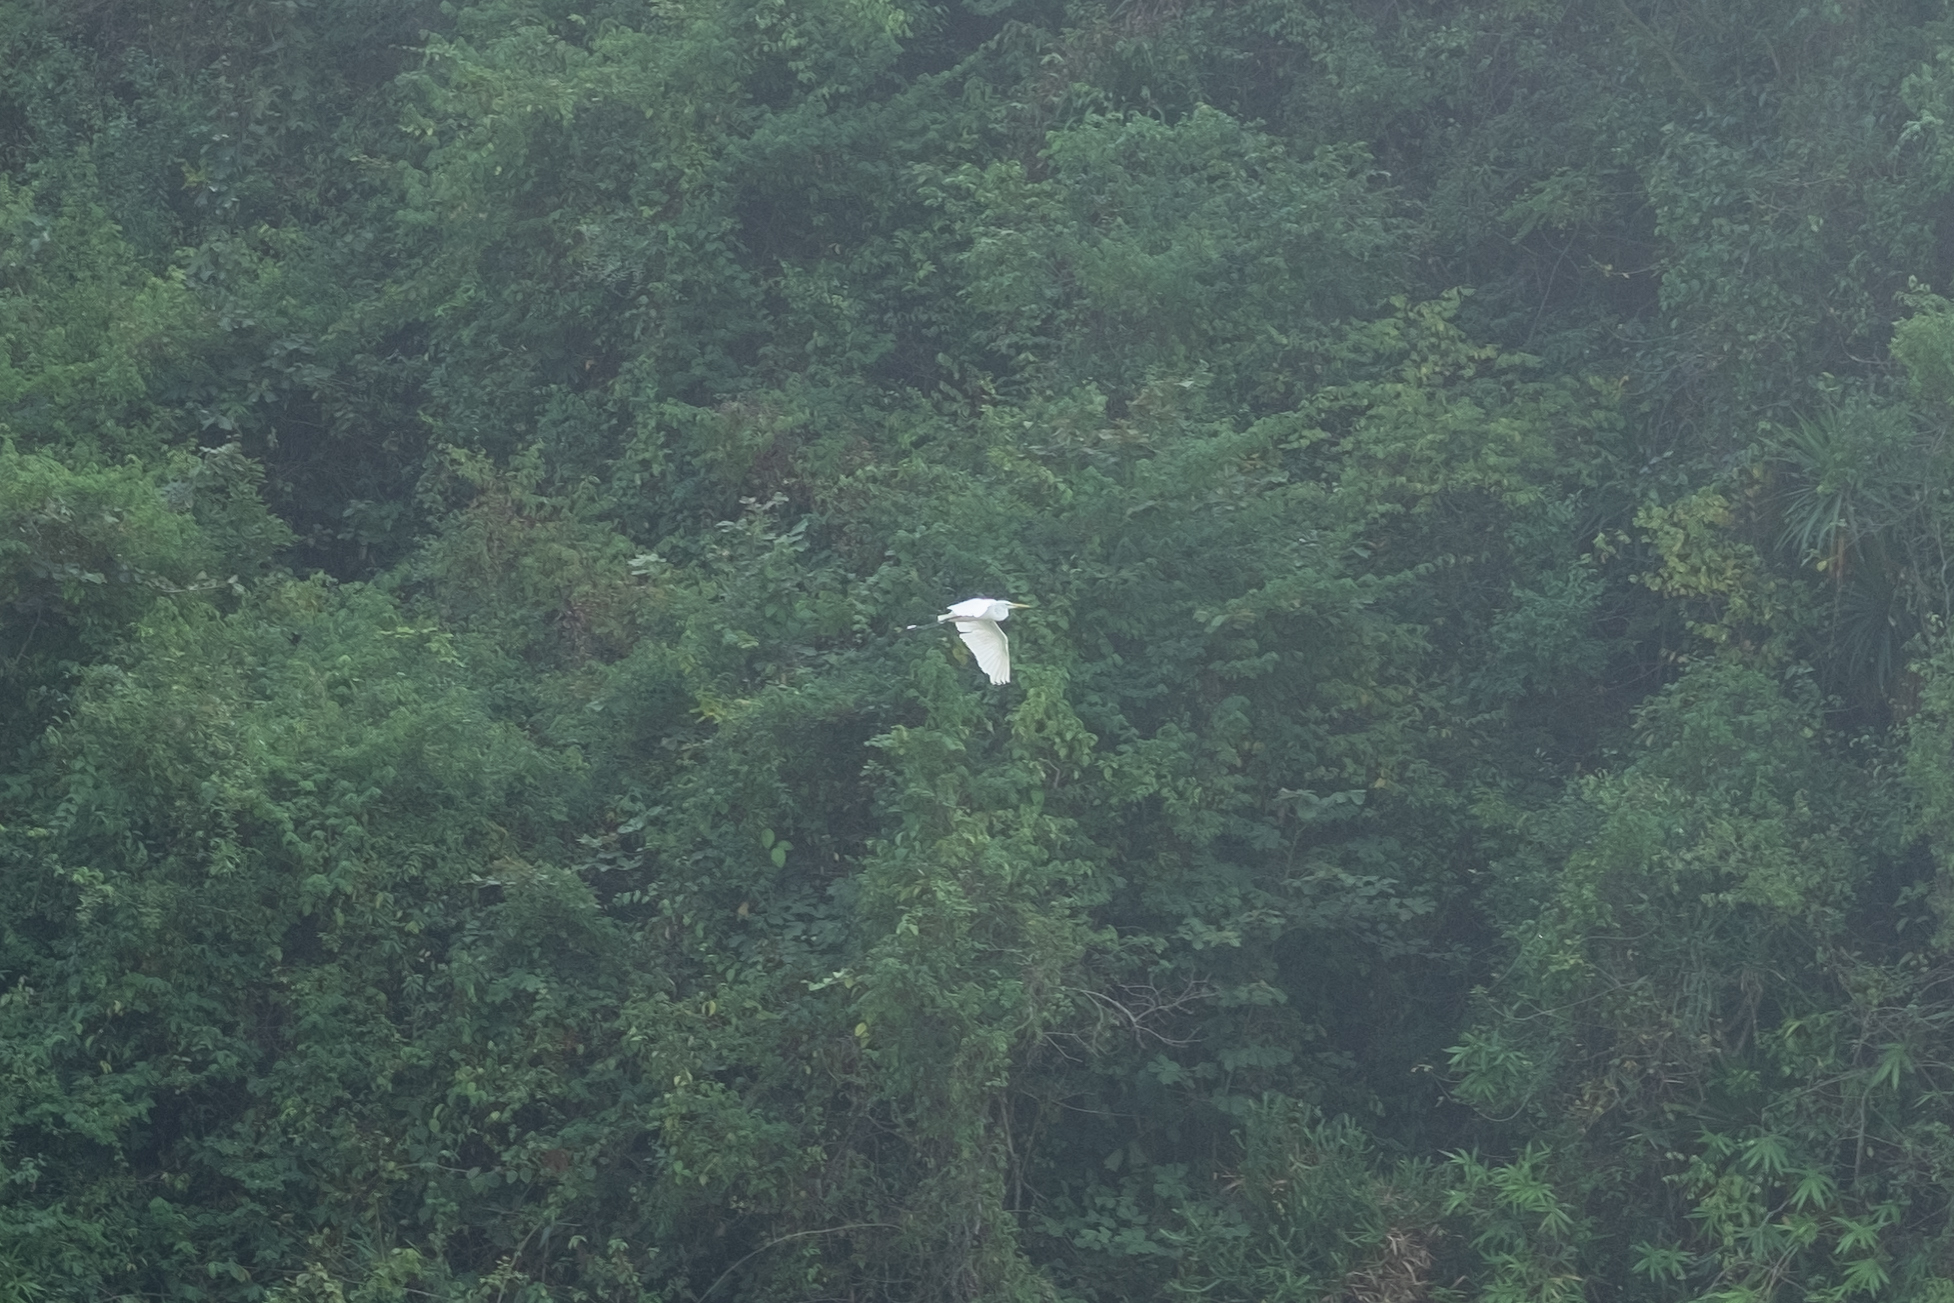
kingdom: Animalia
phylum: Chordata
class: Aves
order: Pelecaniformes
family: Ardeidae
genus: Egretta
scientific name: Egretta garzetta
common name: Little egret
